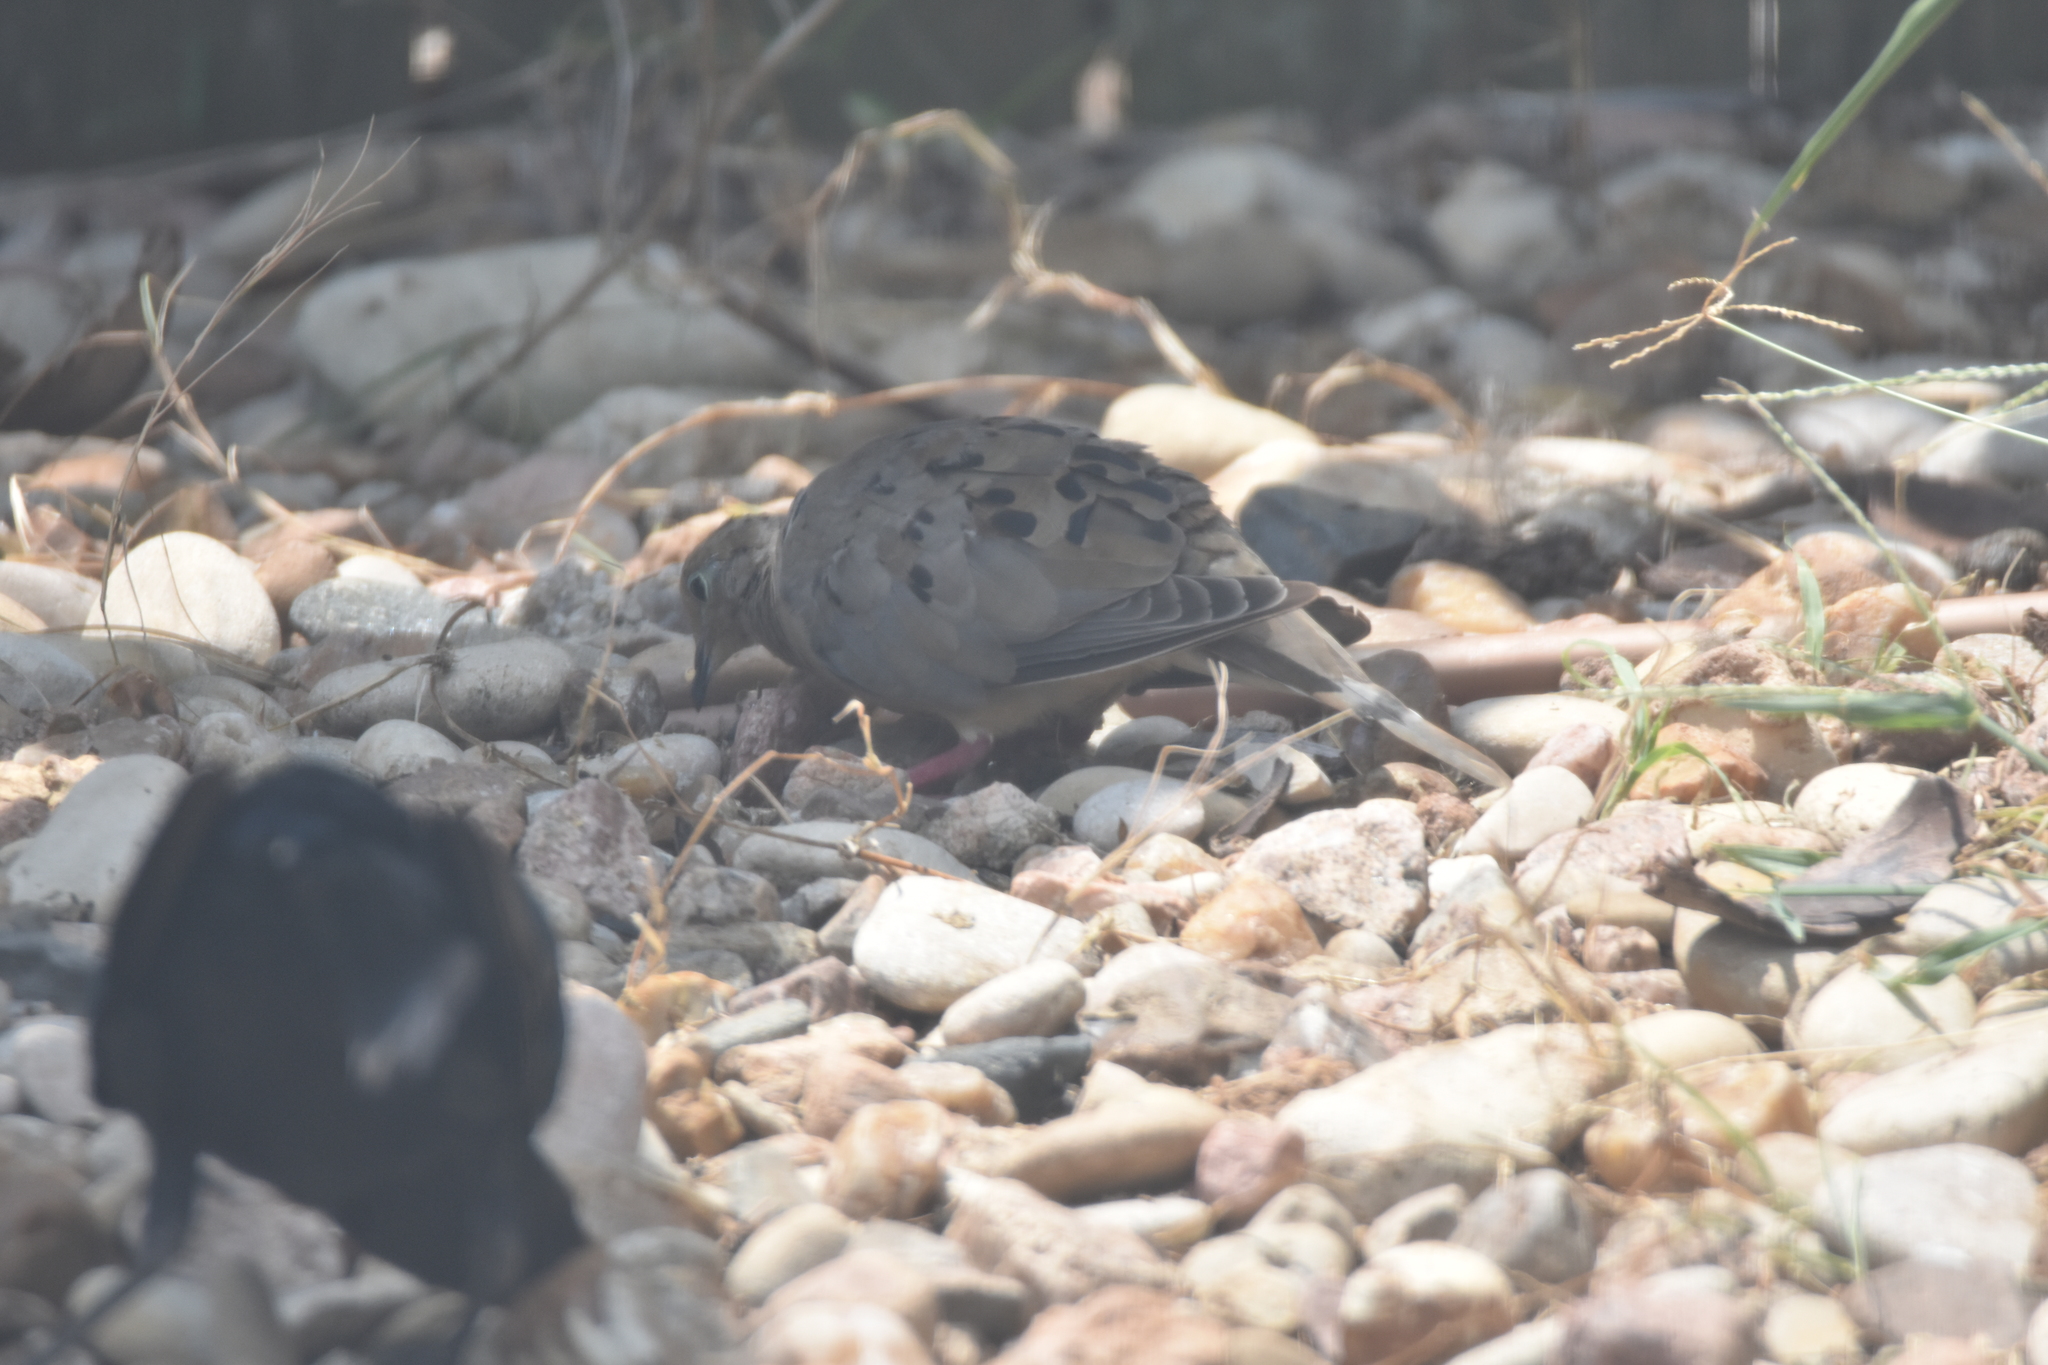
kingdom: Animalia
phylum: Chordata
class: Aves
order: Columbiformes
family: Columbidae
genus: Zenaida
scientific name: Zenaida macroura
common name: Mourning dove
